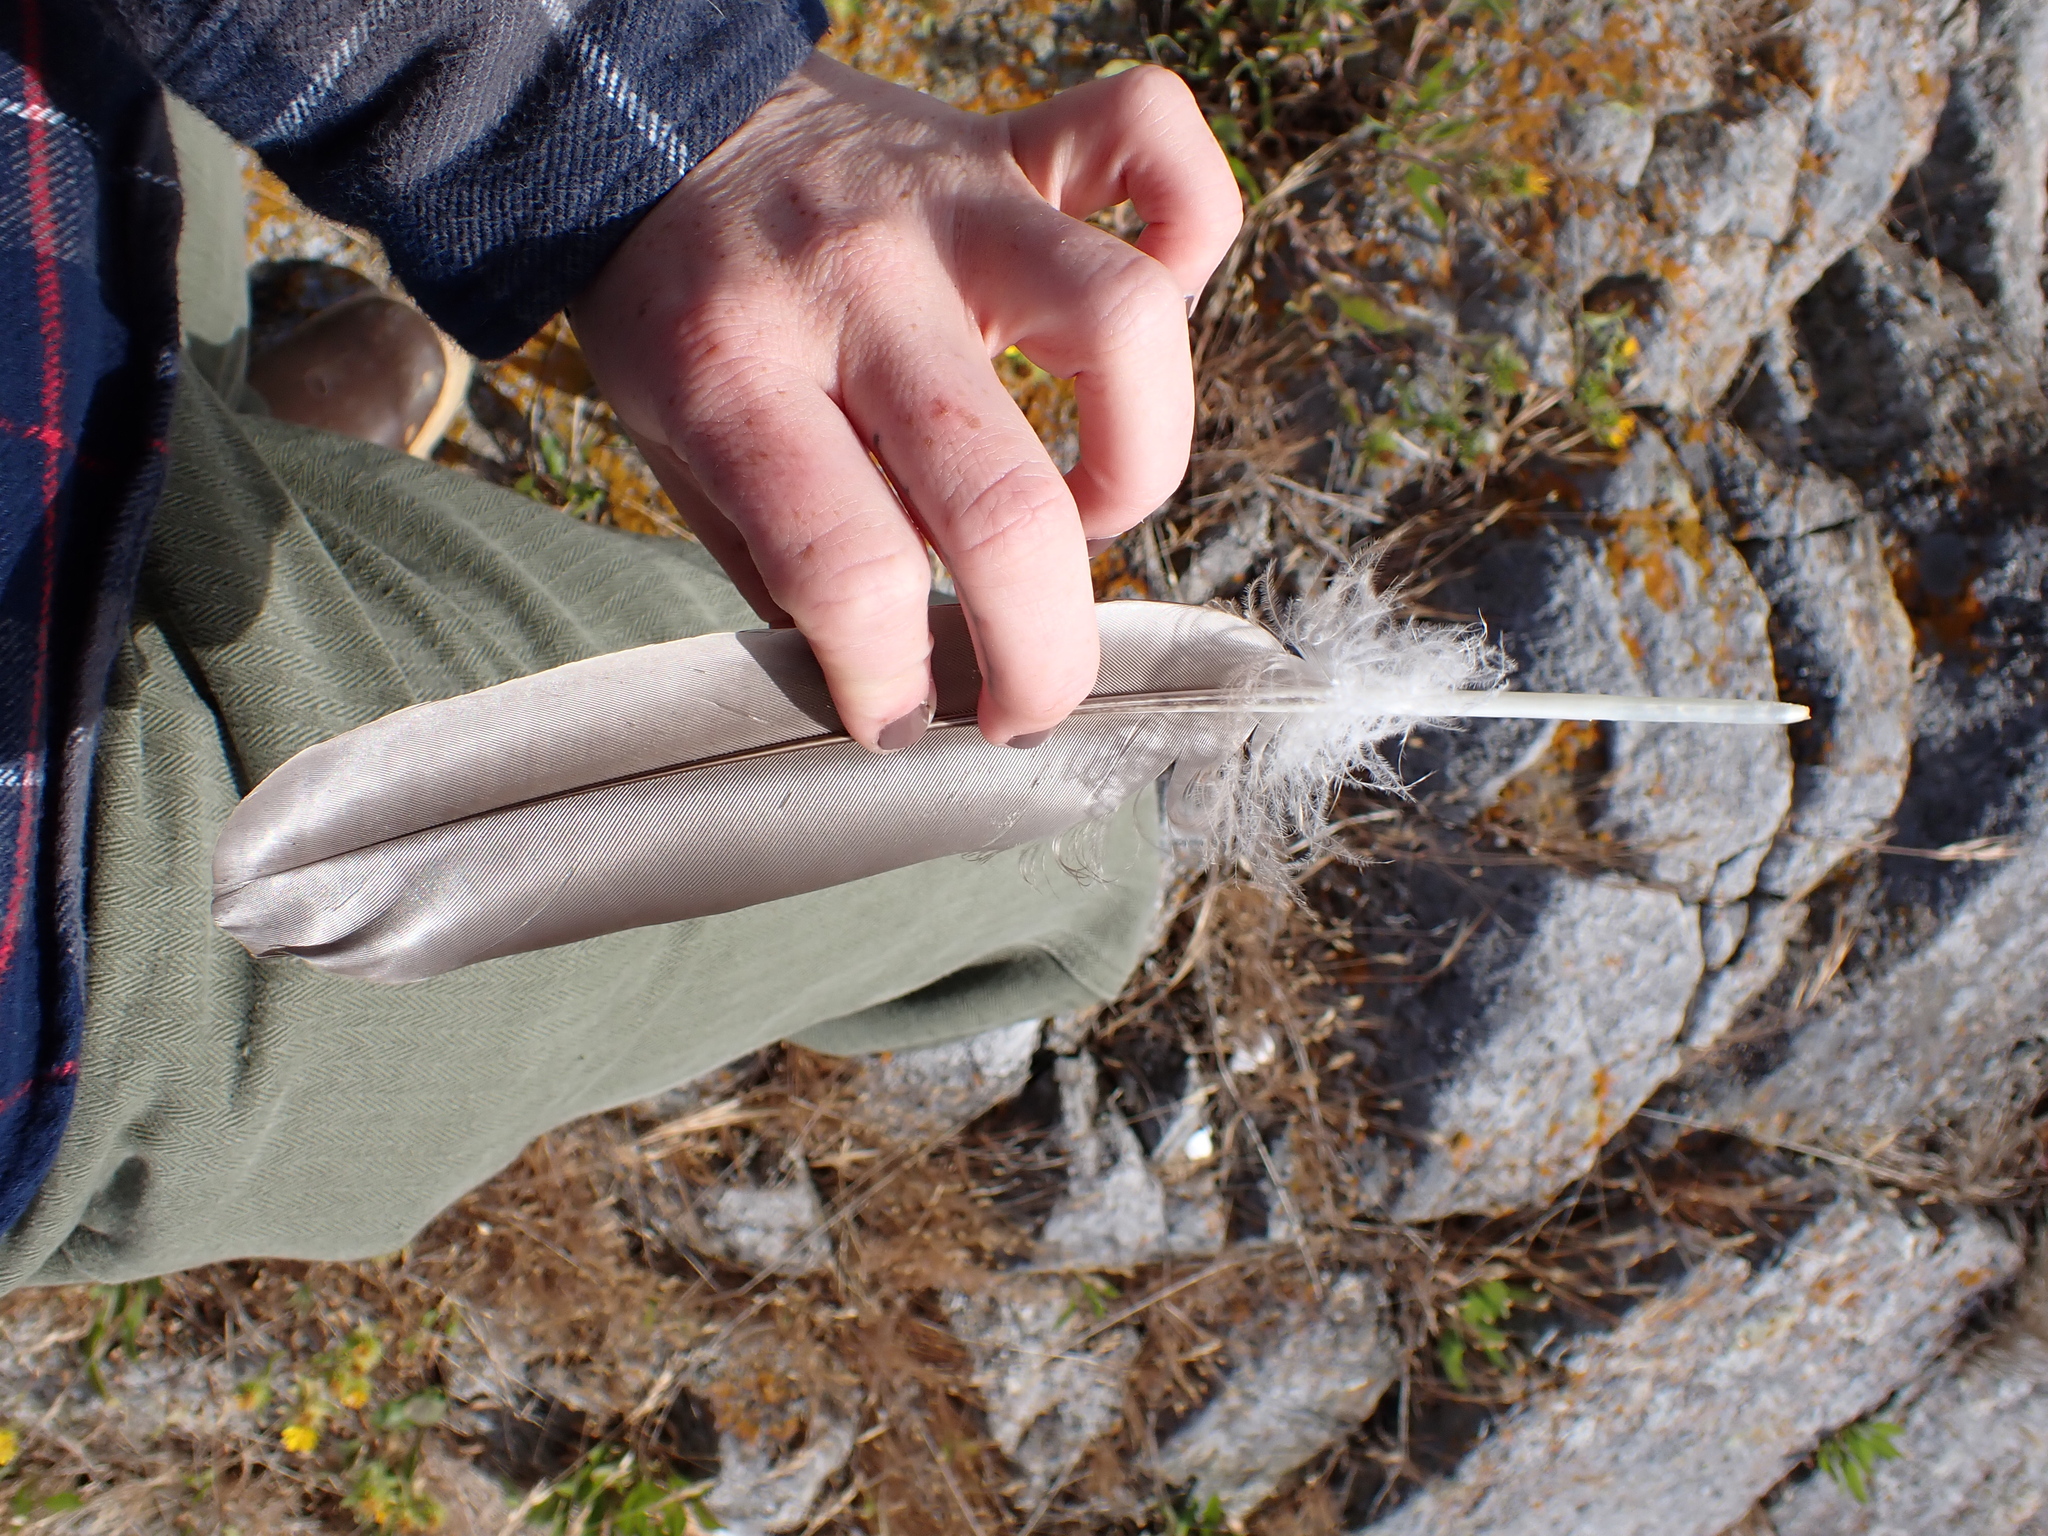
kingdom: Animalia
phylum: Chordata
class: Aves
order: Anseriformes
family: Anatidae
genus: Branta
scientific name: Branta canadensis
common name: Canada goose
